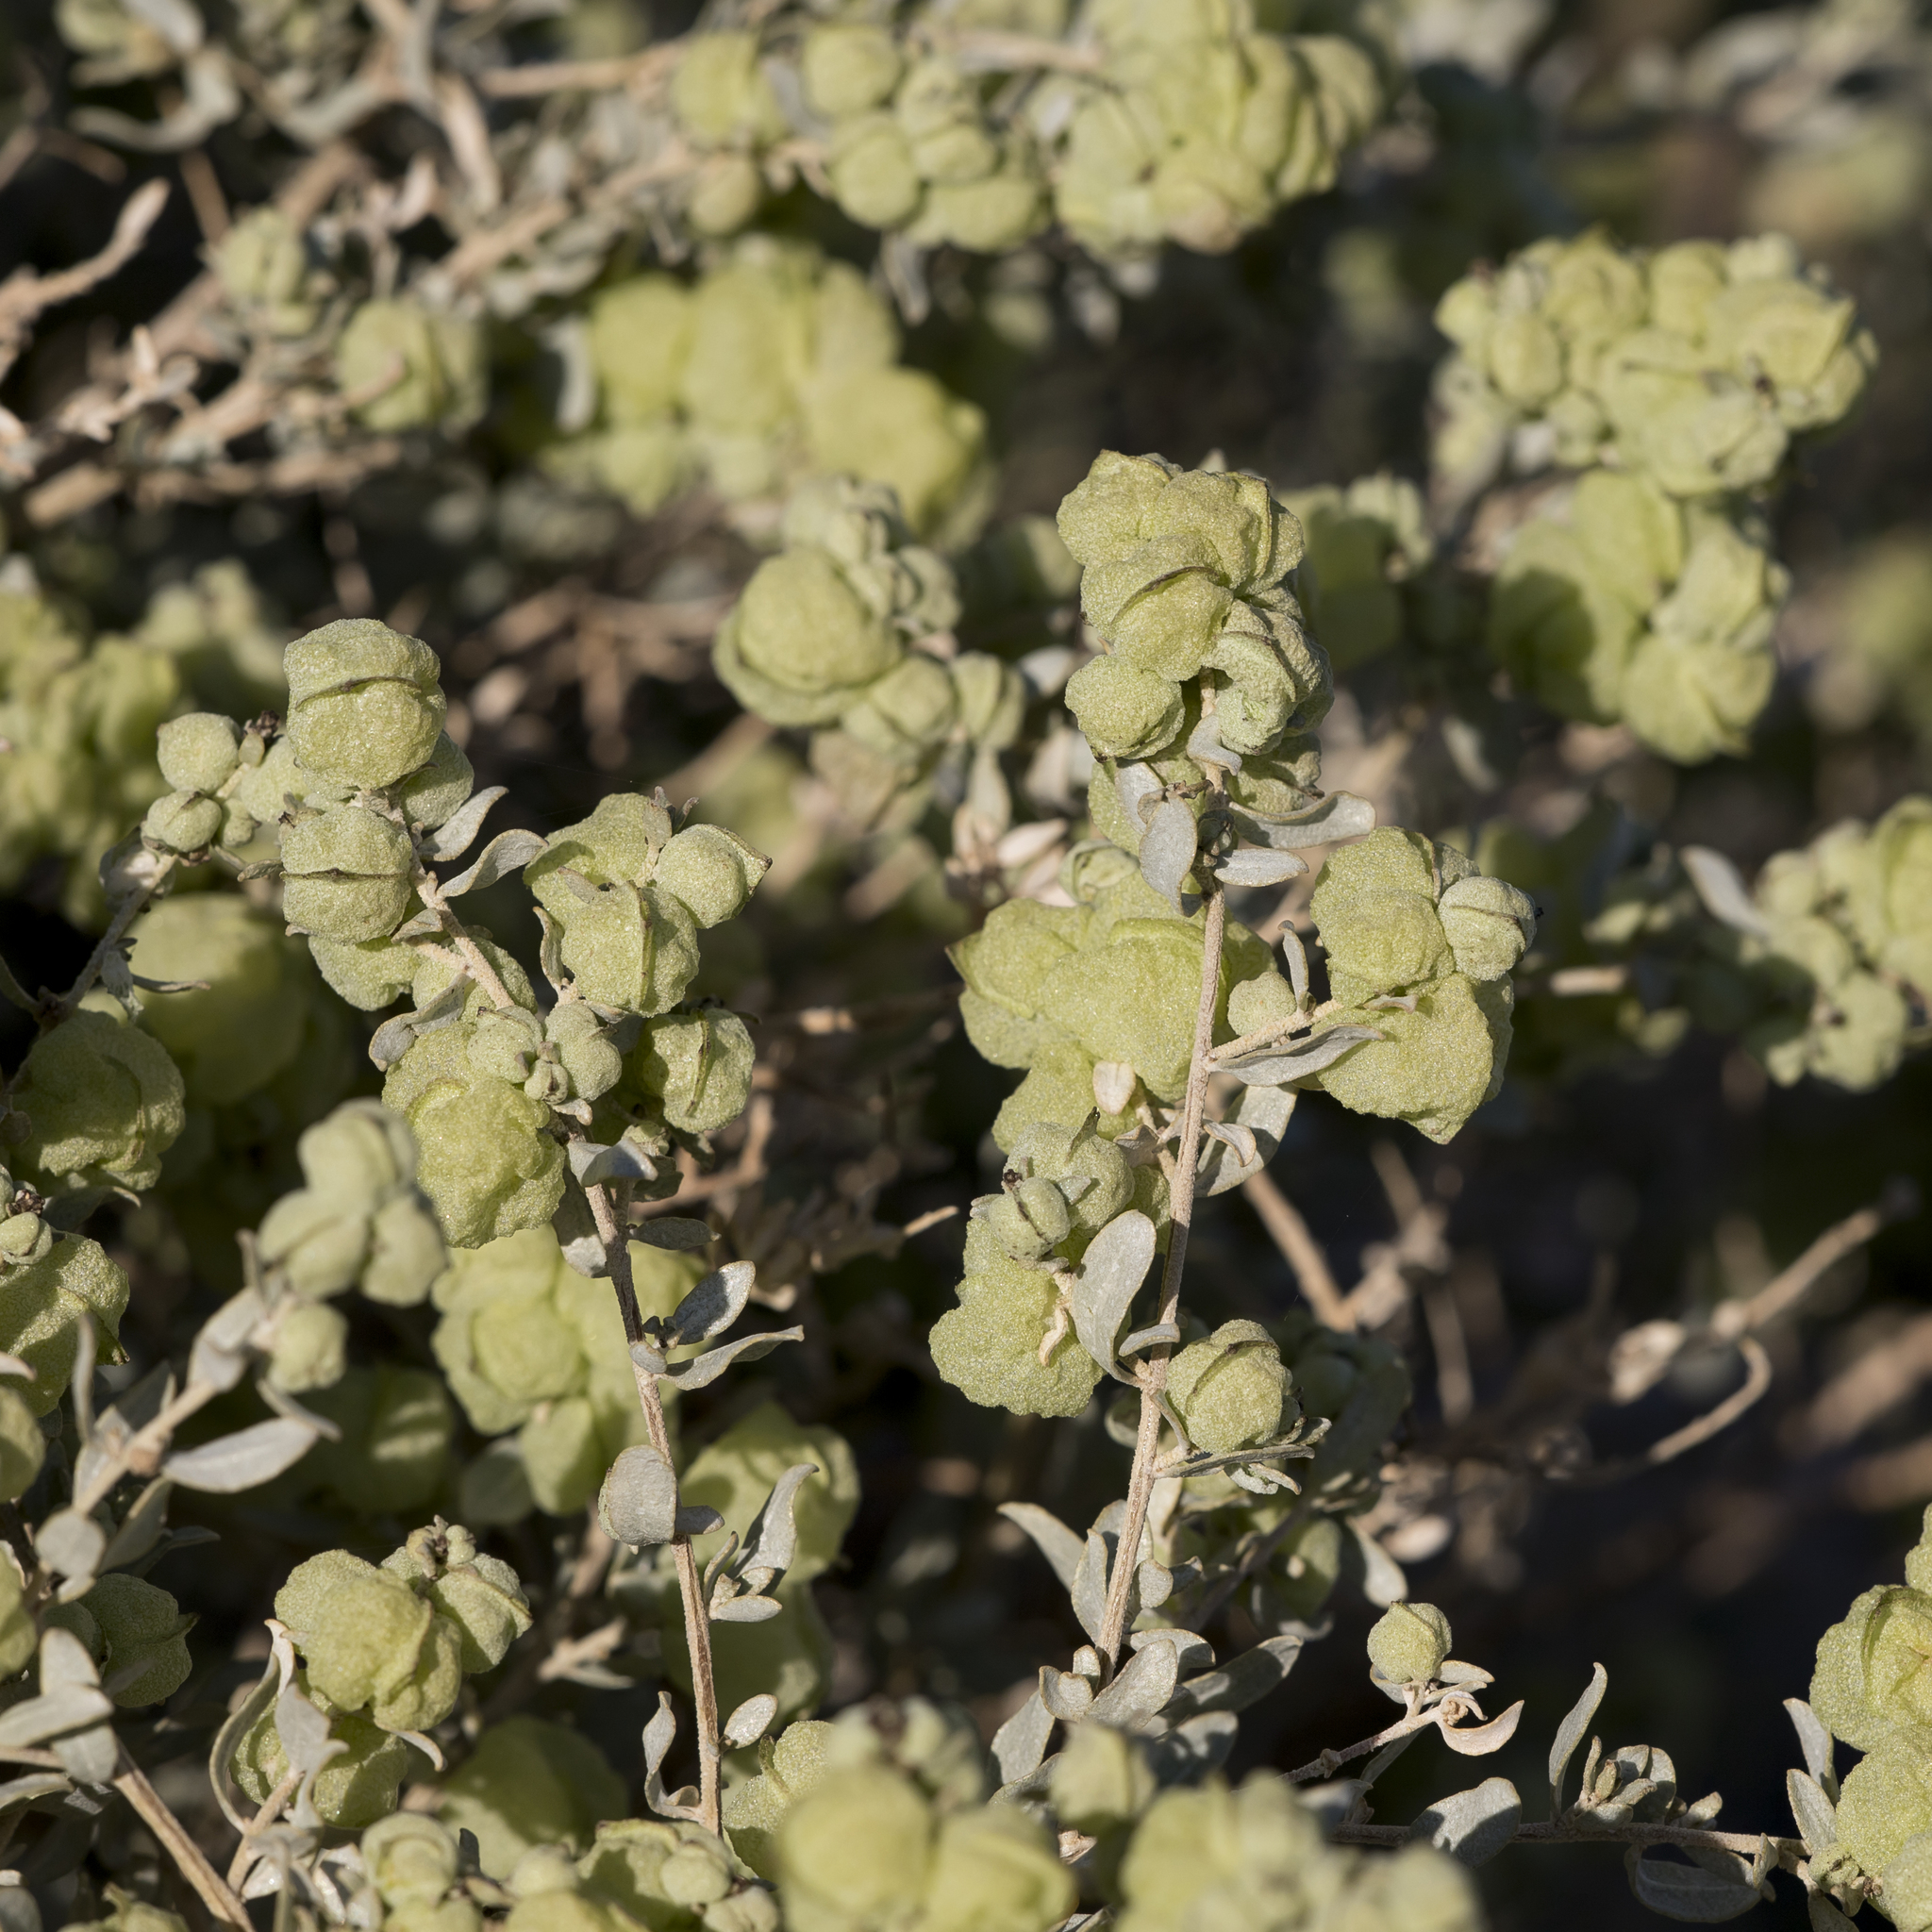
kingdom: Plantae
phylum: Tracheophyta
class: Magnoliopsida
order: Caryophyllales
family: Amaranthaceae
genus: Atriplex
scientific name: Atriplex vesicaria
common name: Aboriginal saltbush
